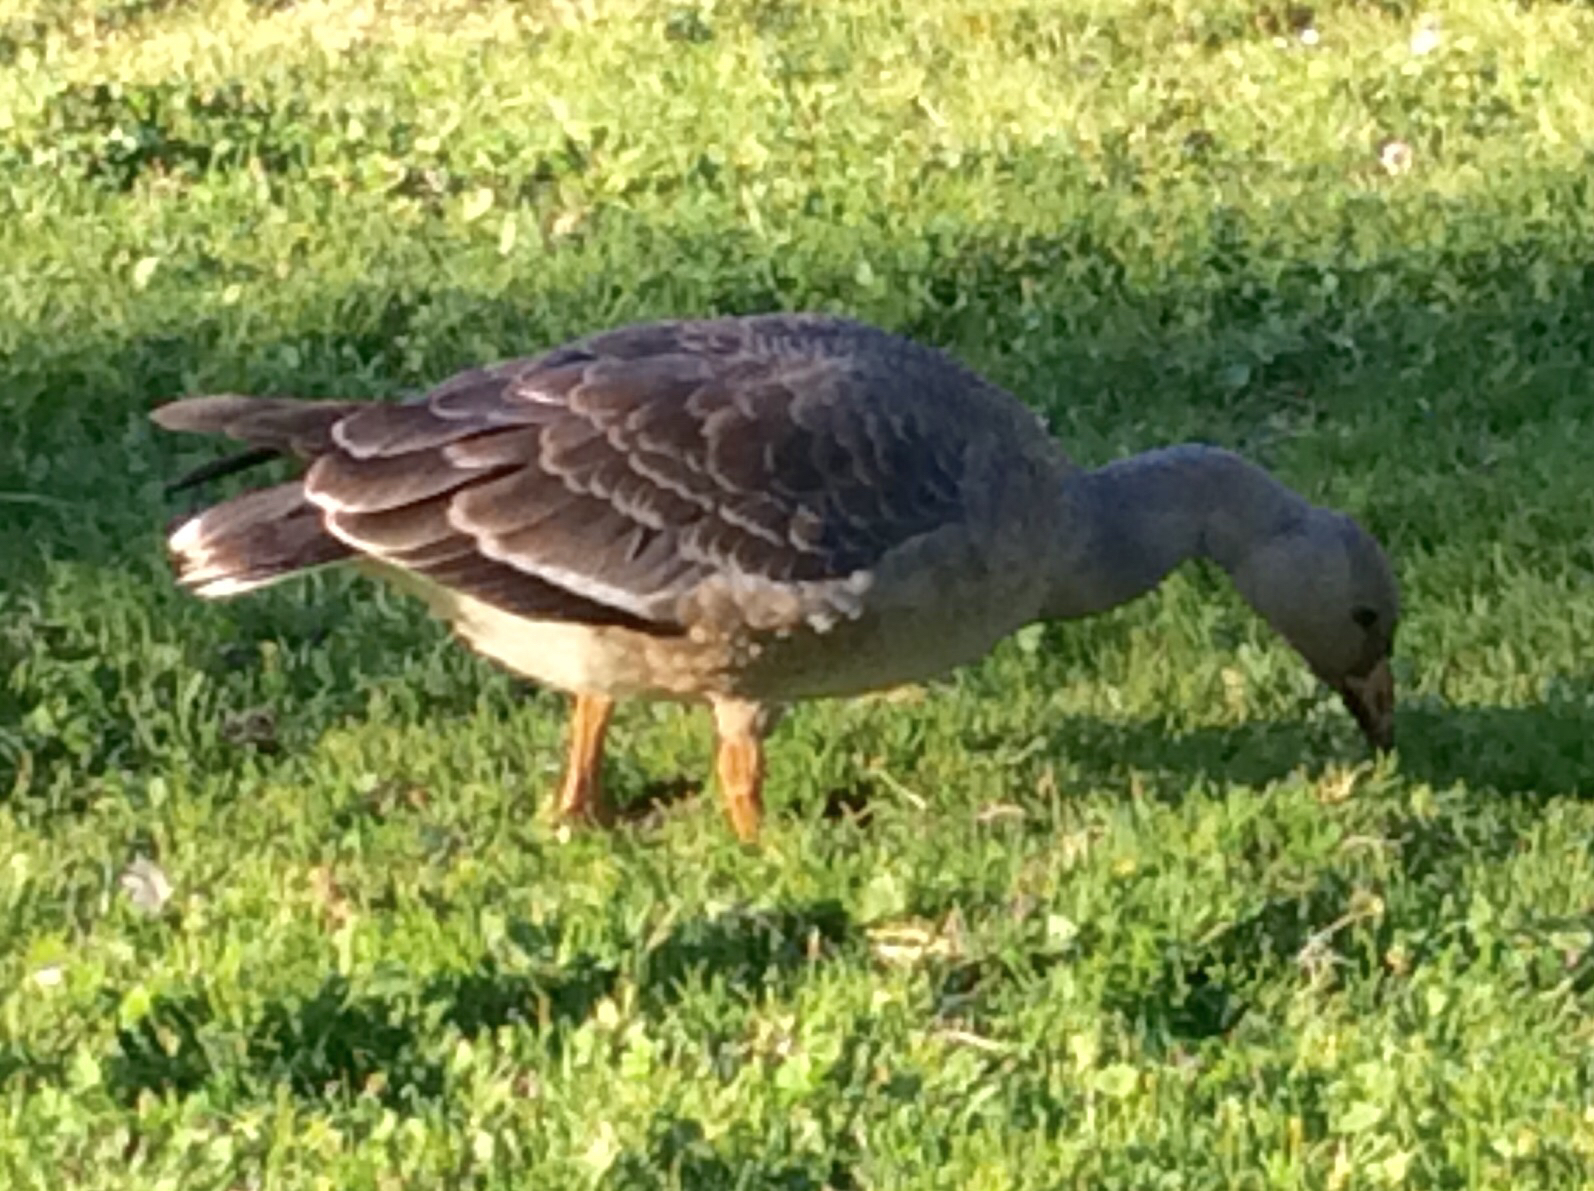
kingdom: Animalia
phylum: Chordata
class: Aves
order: Anseriformes
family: Anatidae
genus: Anser
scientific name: Anser albifrons
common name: Greater white-fronted goose
